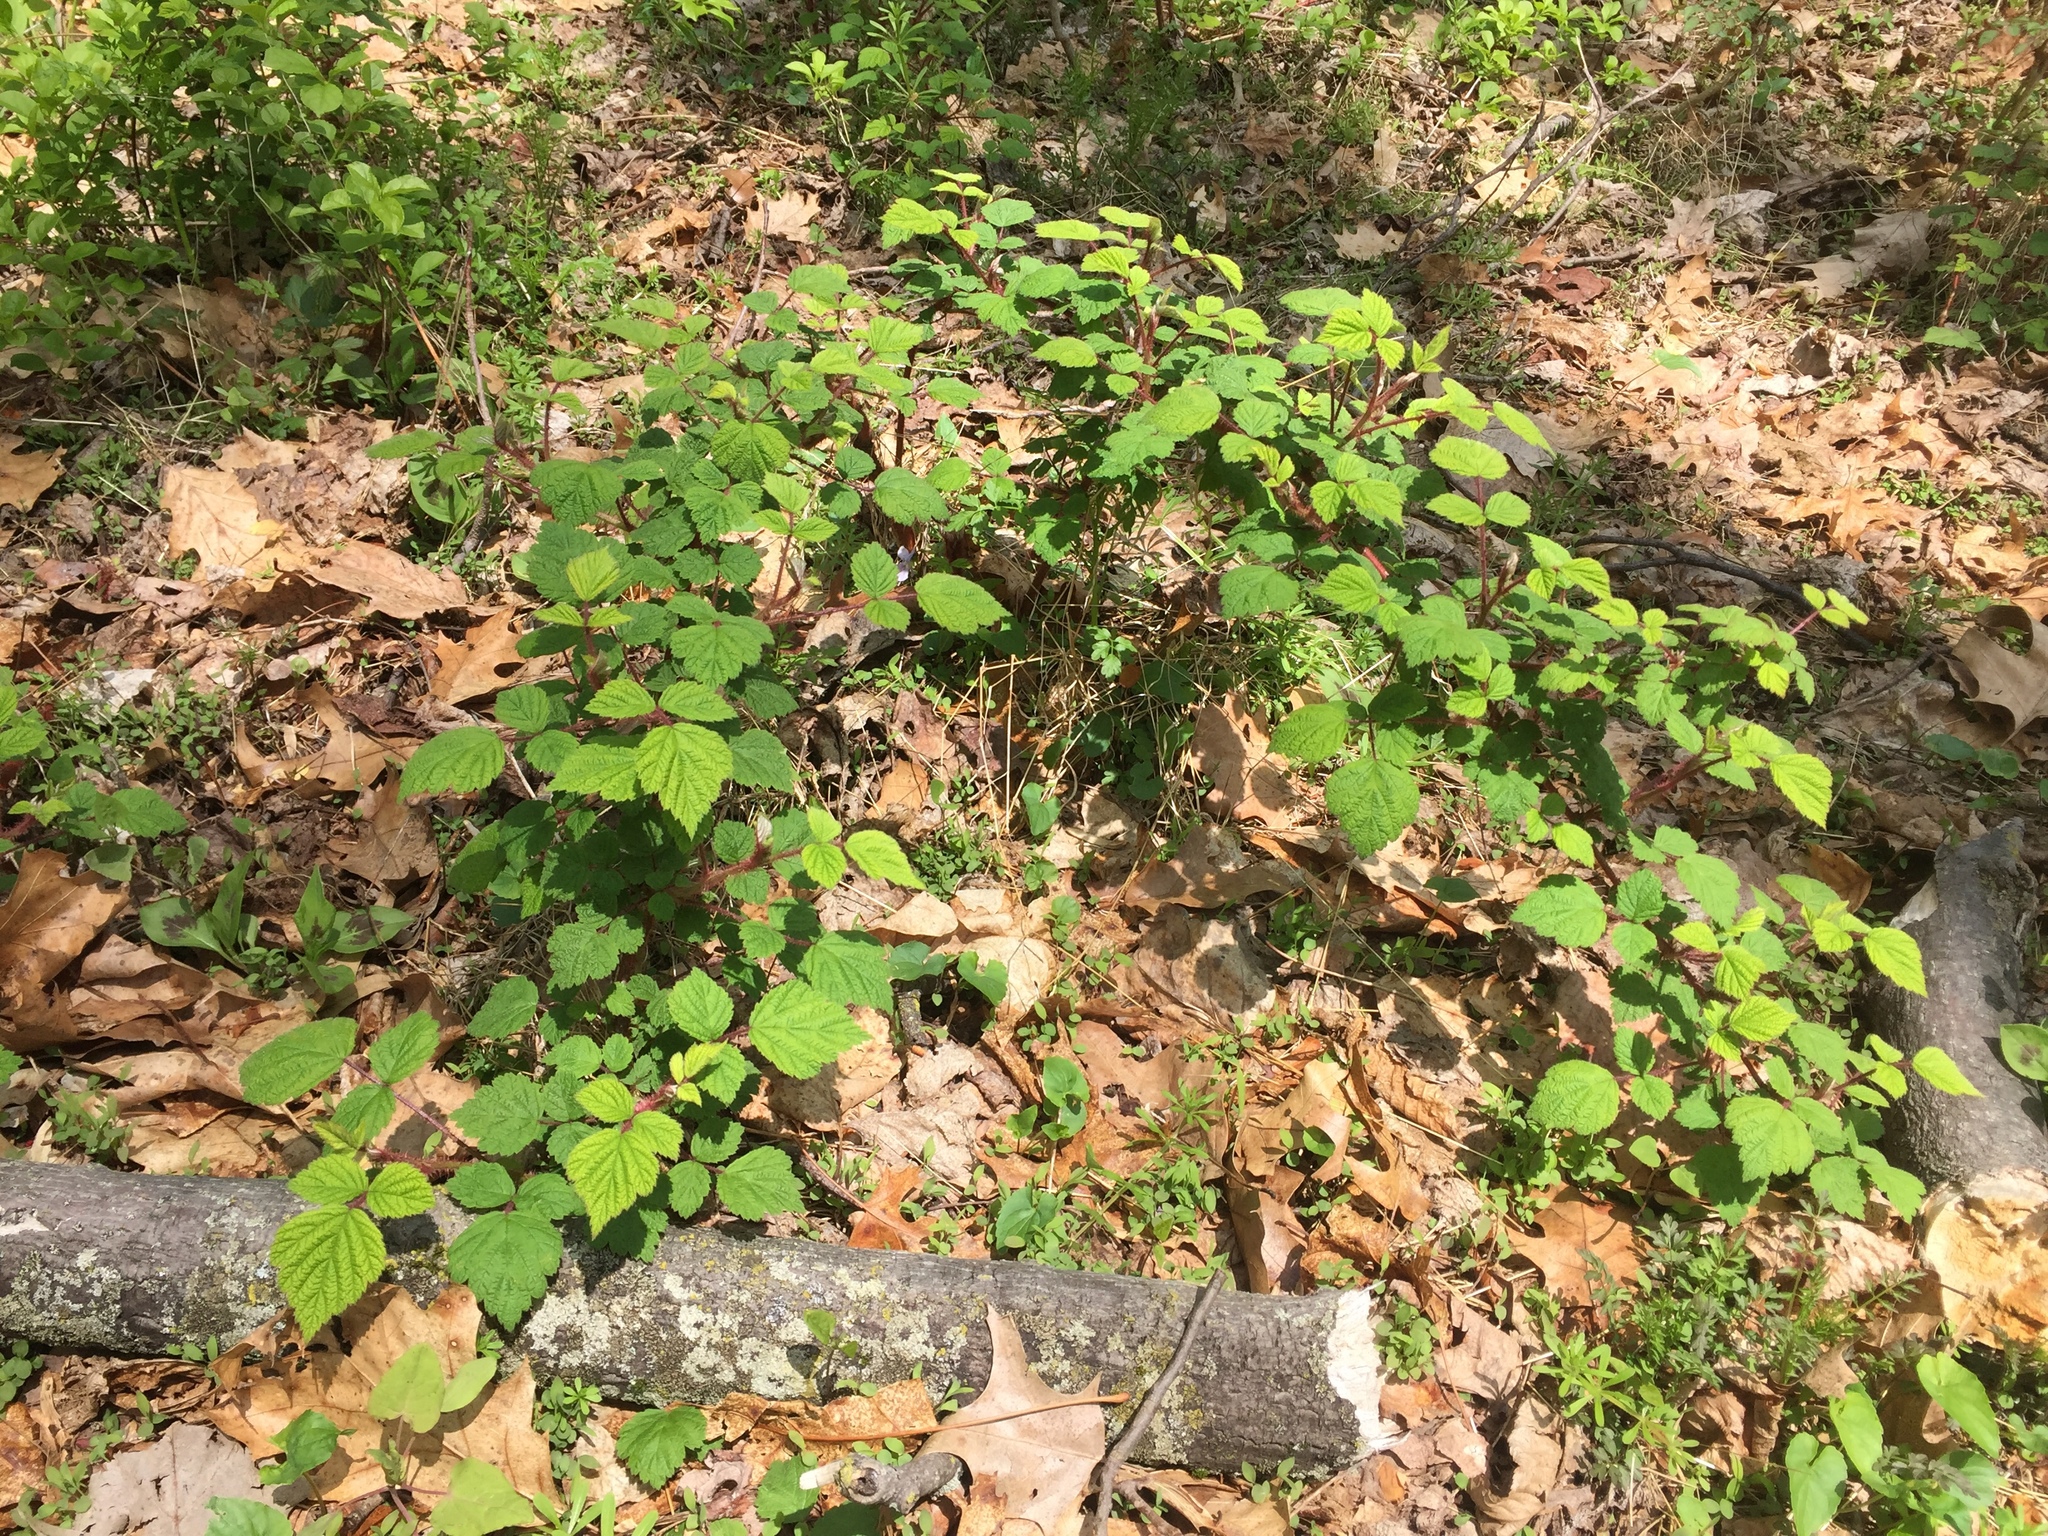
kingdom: Plantae
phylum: Tracheophyta
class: Magnoliopsida
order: Rosales
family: Rosaceae
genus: Rubus
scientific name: Rubus phoenicolasius
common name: Japanese wineberry
